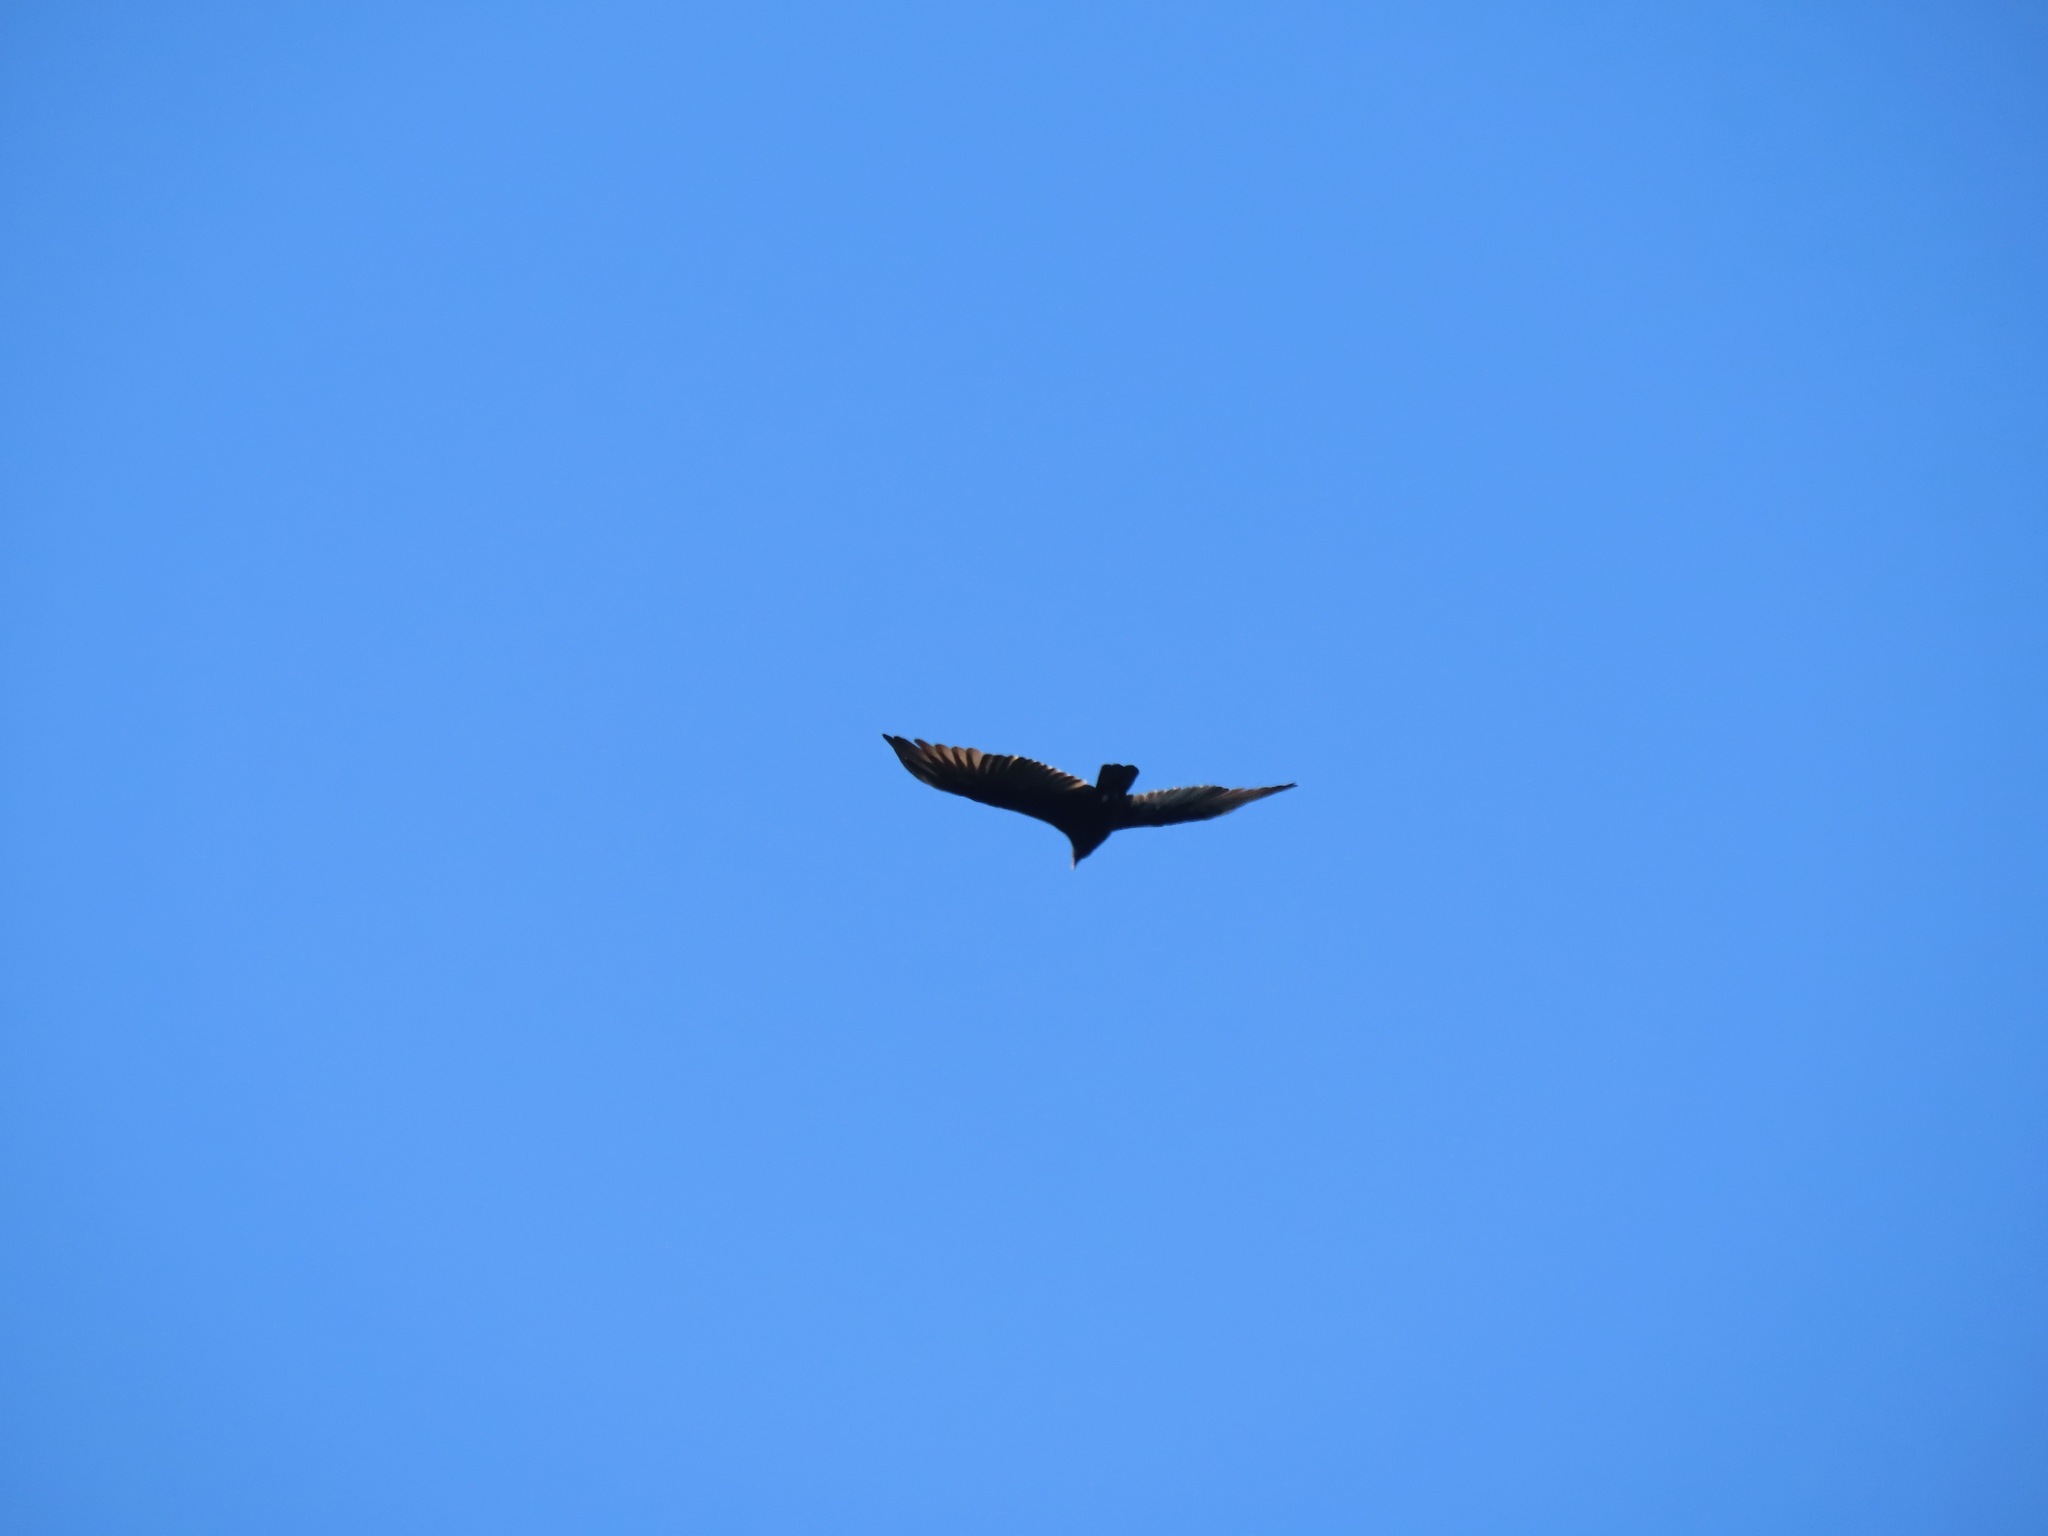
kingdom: Animalia
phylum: Chordata
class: Aves
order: Accipitriformes
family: Cathartidae
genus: Cathartes
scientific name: Cathartes aura
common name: Turkey vulture
